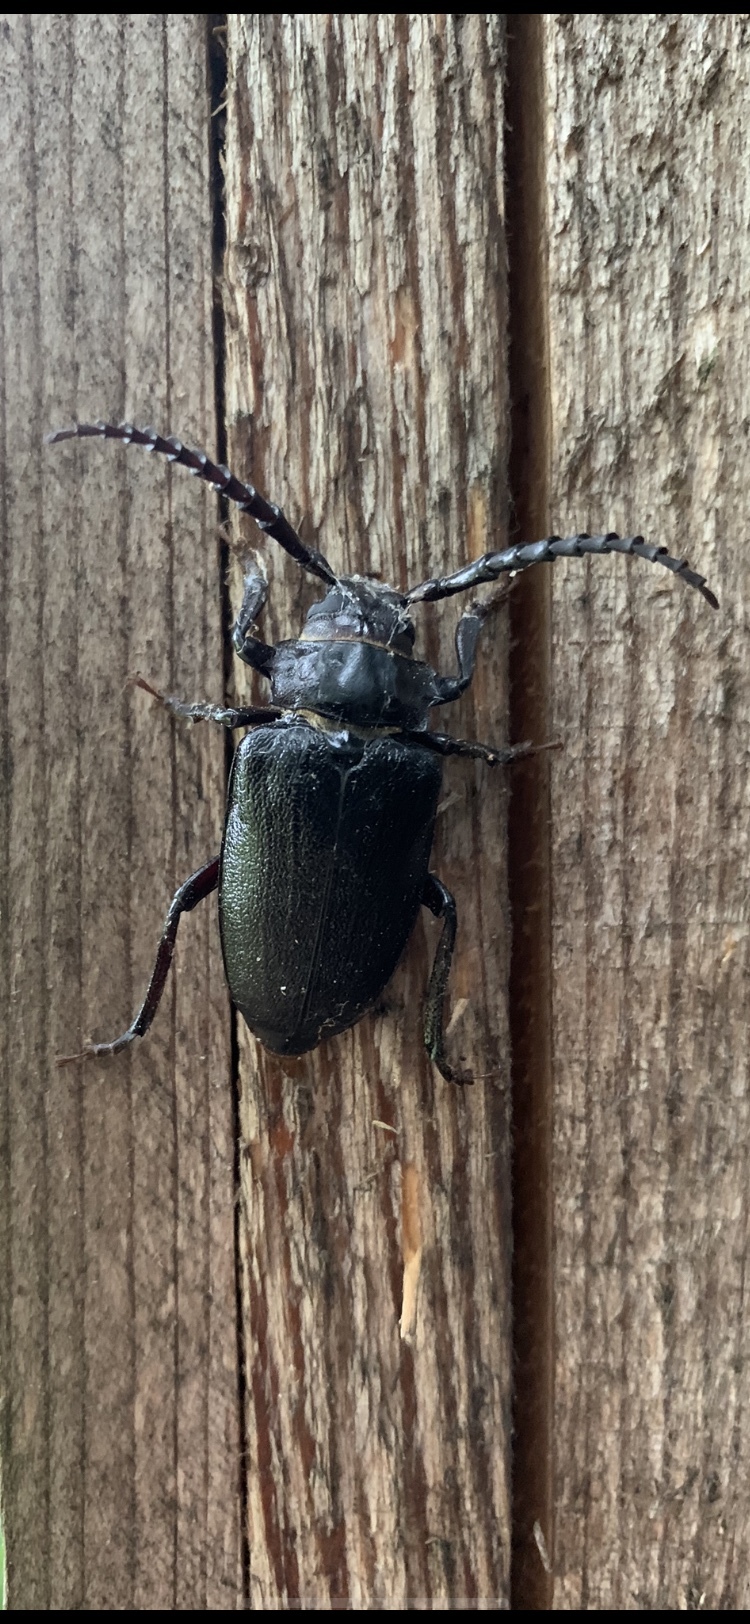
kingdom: Animalia
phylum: Arthropoda
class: Insecta
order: Coleoptera
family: Cerambycidae
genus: Prionus
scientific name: Prionus laticollis
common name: Broad necked prionus
